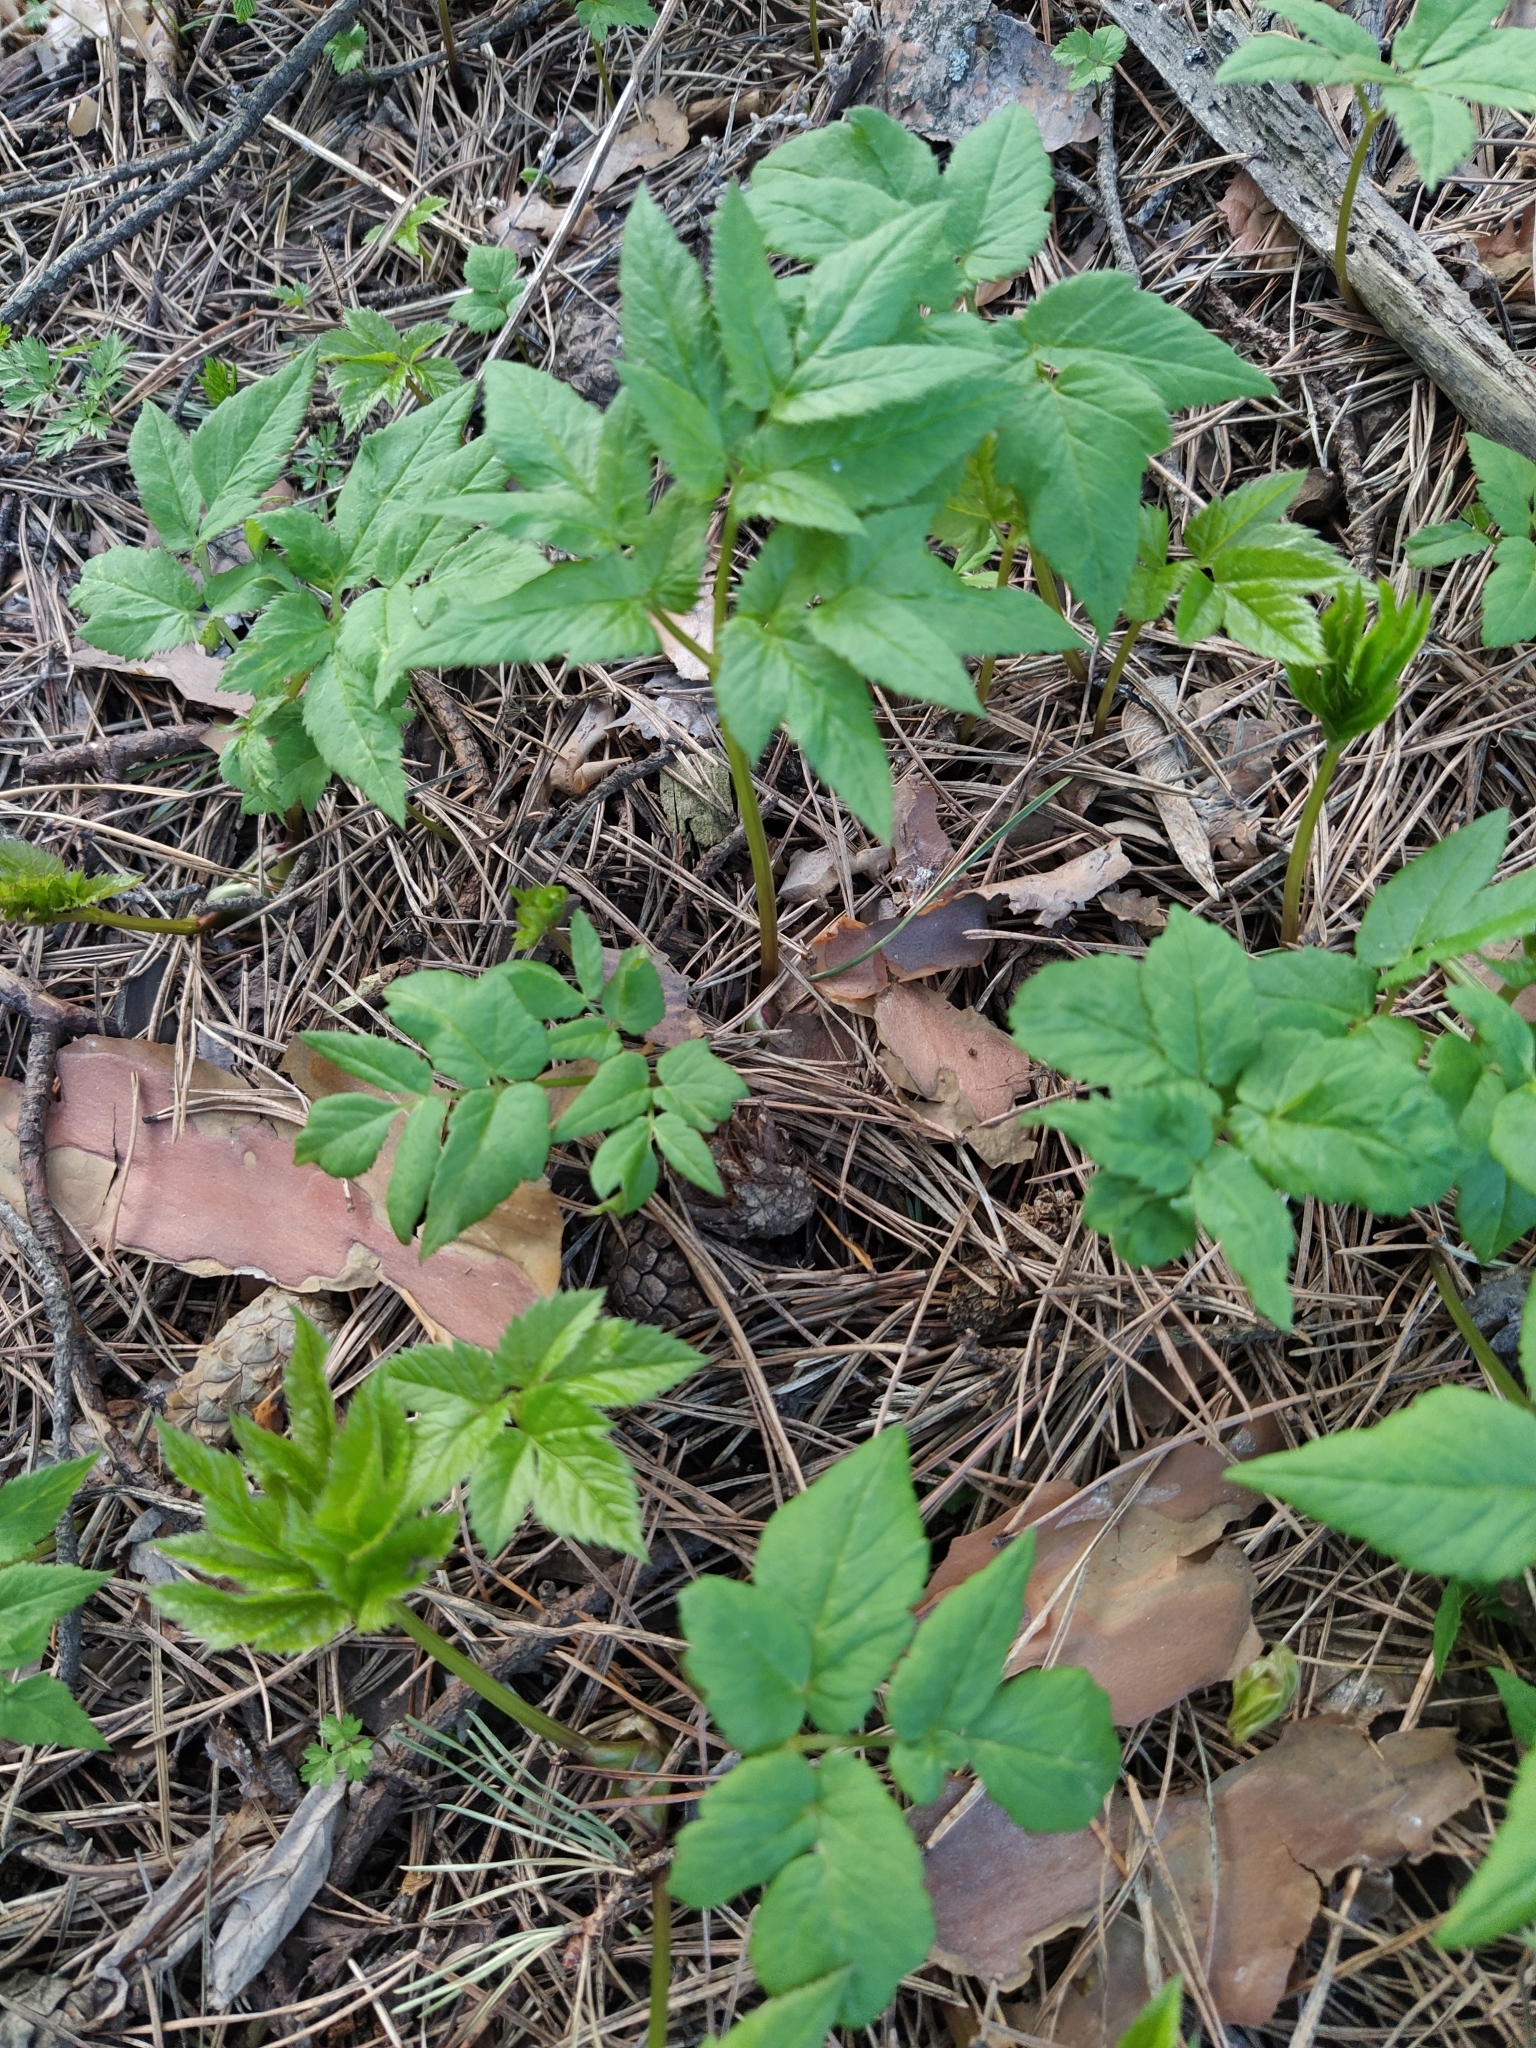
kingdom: Plantae
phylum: Tracheophyta
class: Magnoliopsida
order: Apiales
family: Apiaceae
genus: Aegopodium
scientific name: Aegopodium podagraria
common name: Ground-elder
